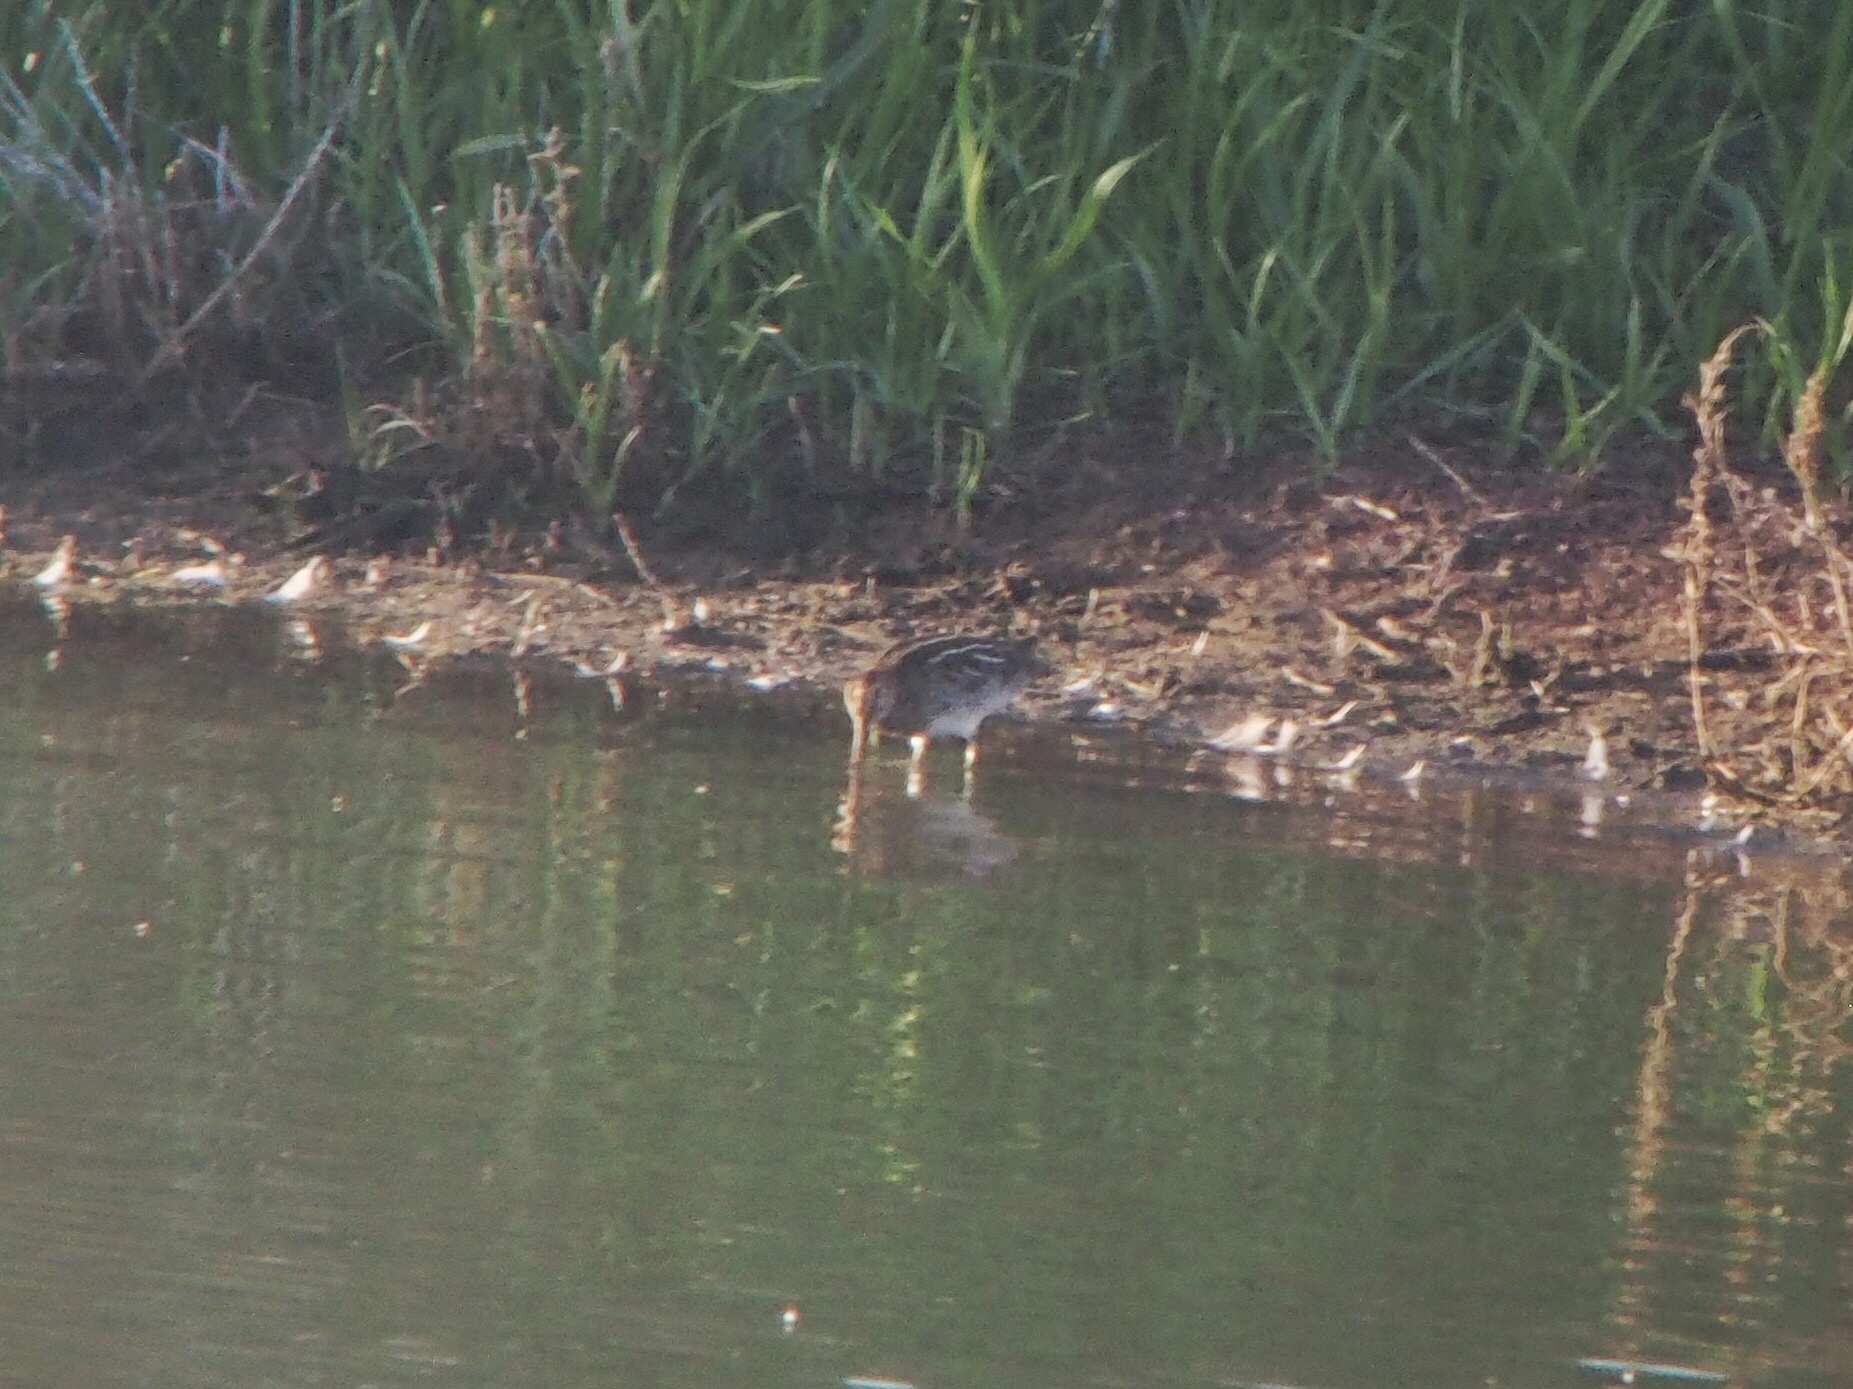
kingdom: Animalia
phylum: Chordata
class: Aves
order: Charadriiformes
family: Scolopacidae
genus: Gallinago
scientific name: Gallinago delicata
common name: Wilson's snipe
